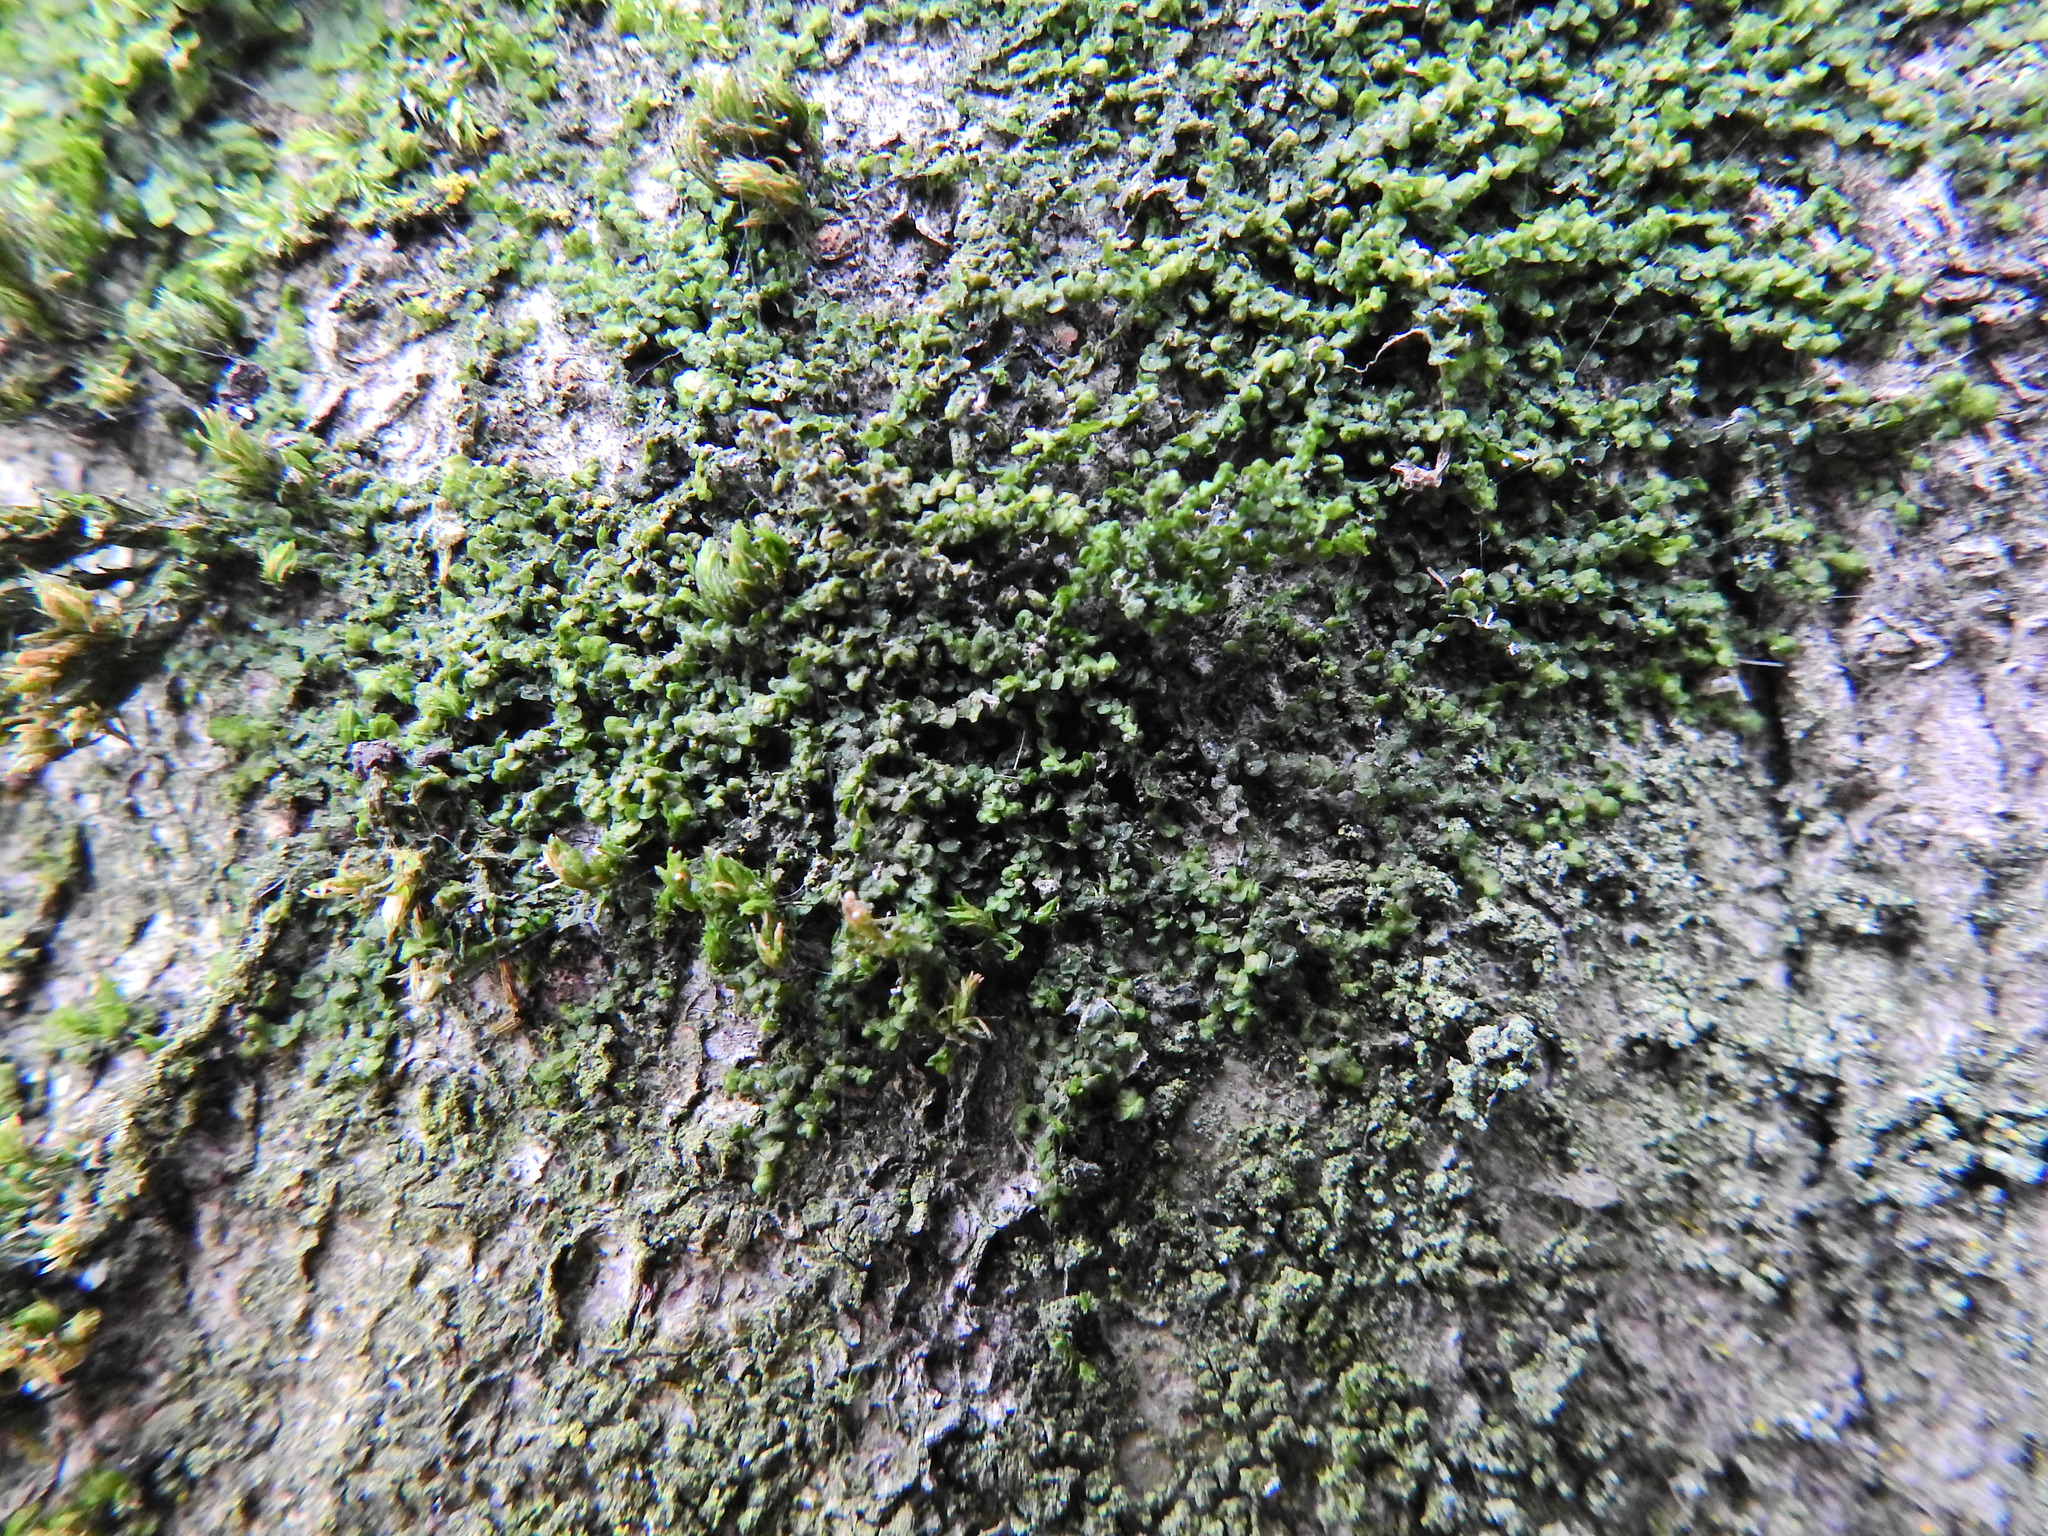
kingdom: Plantae
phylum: Marchantiophyta
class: Jungermanniopsida
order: Porellales
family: Frullaniaceae
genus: Frullania
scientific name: Frullania dilatata
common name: Dilated scalewort
